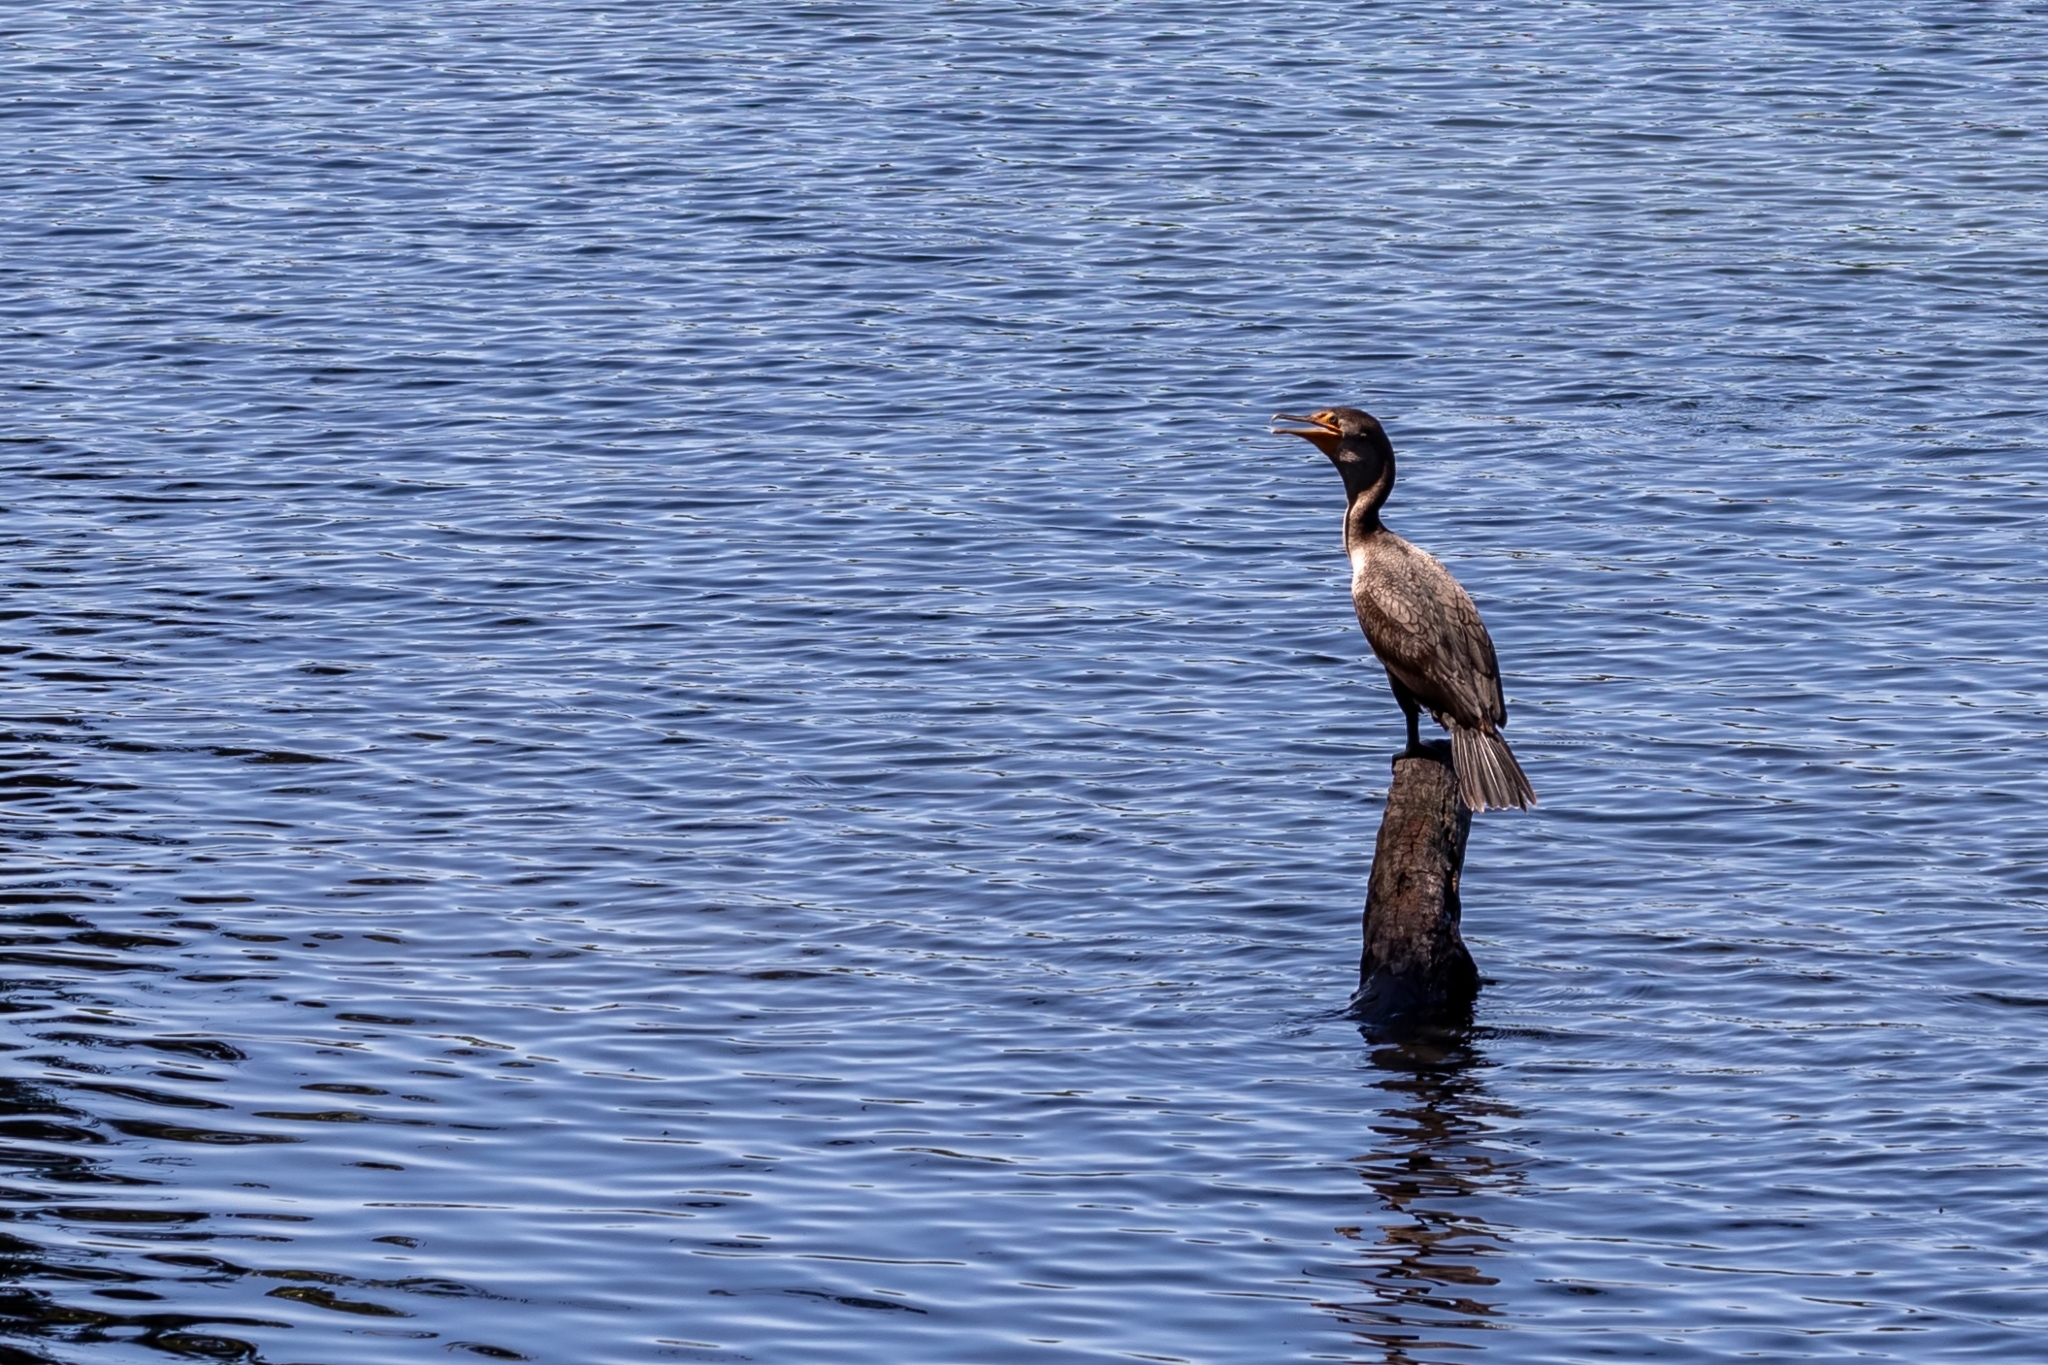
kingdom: Animalia
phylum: Chordata
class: Aves
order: Suliformes
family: Phalacrocoracidae
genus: Phalacrocorax
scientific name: Phalacrocorax auritus
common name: Double-crested cormorant
